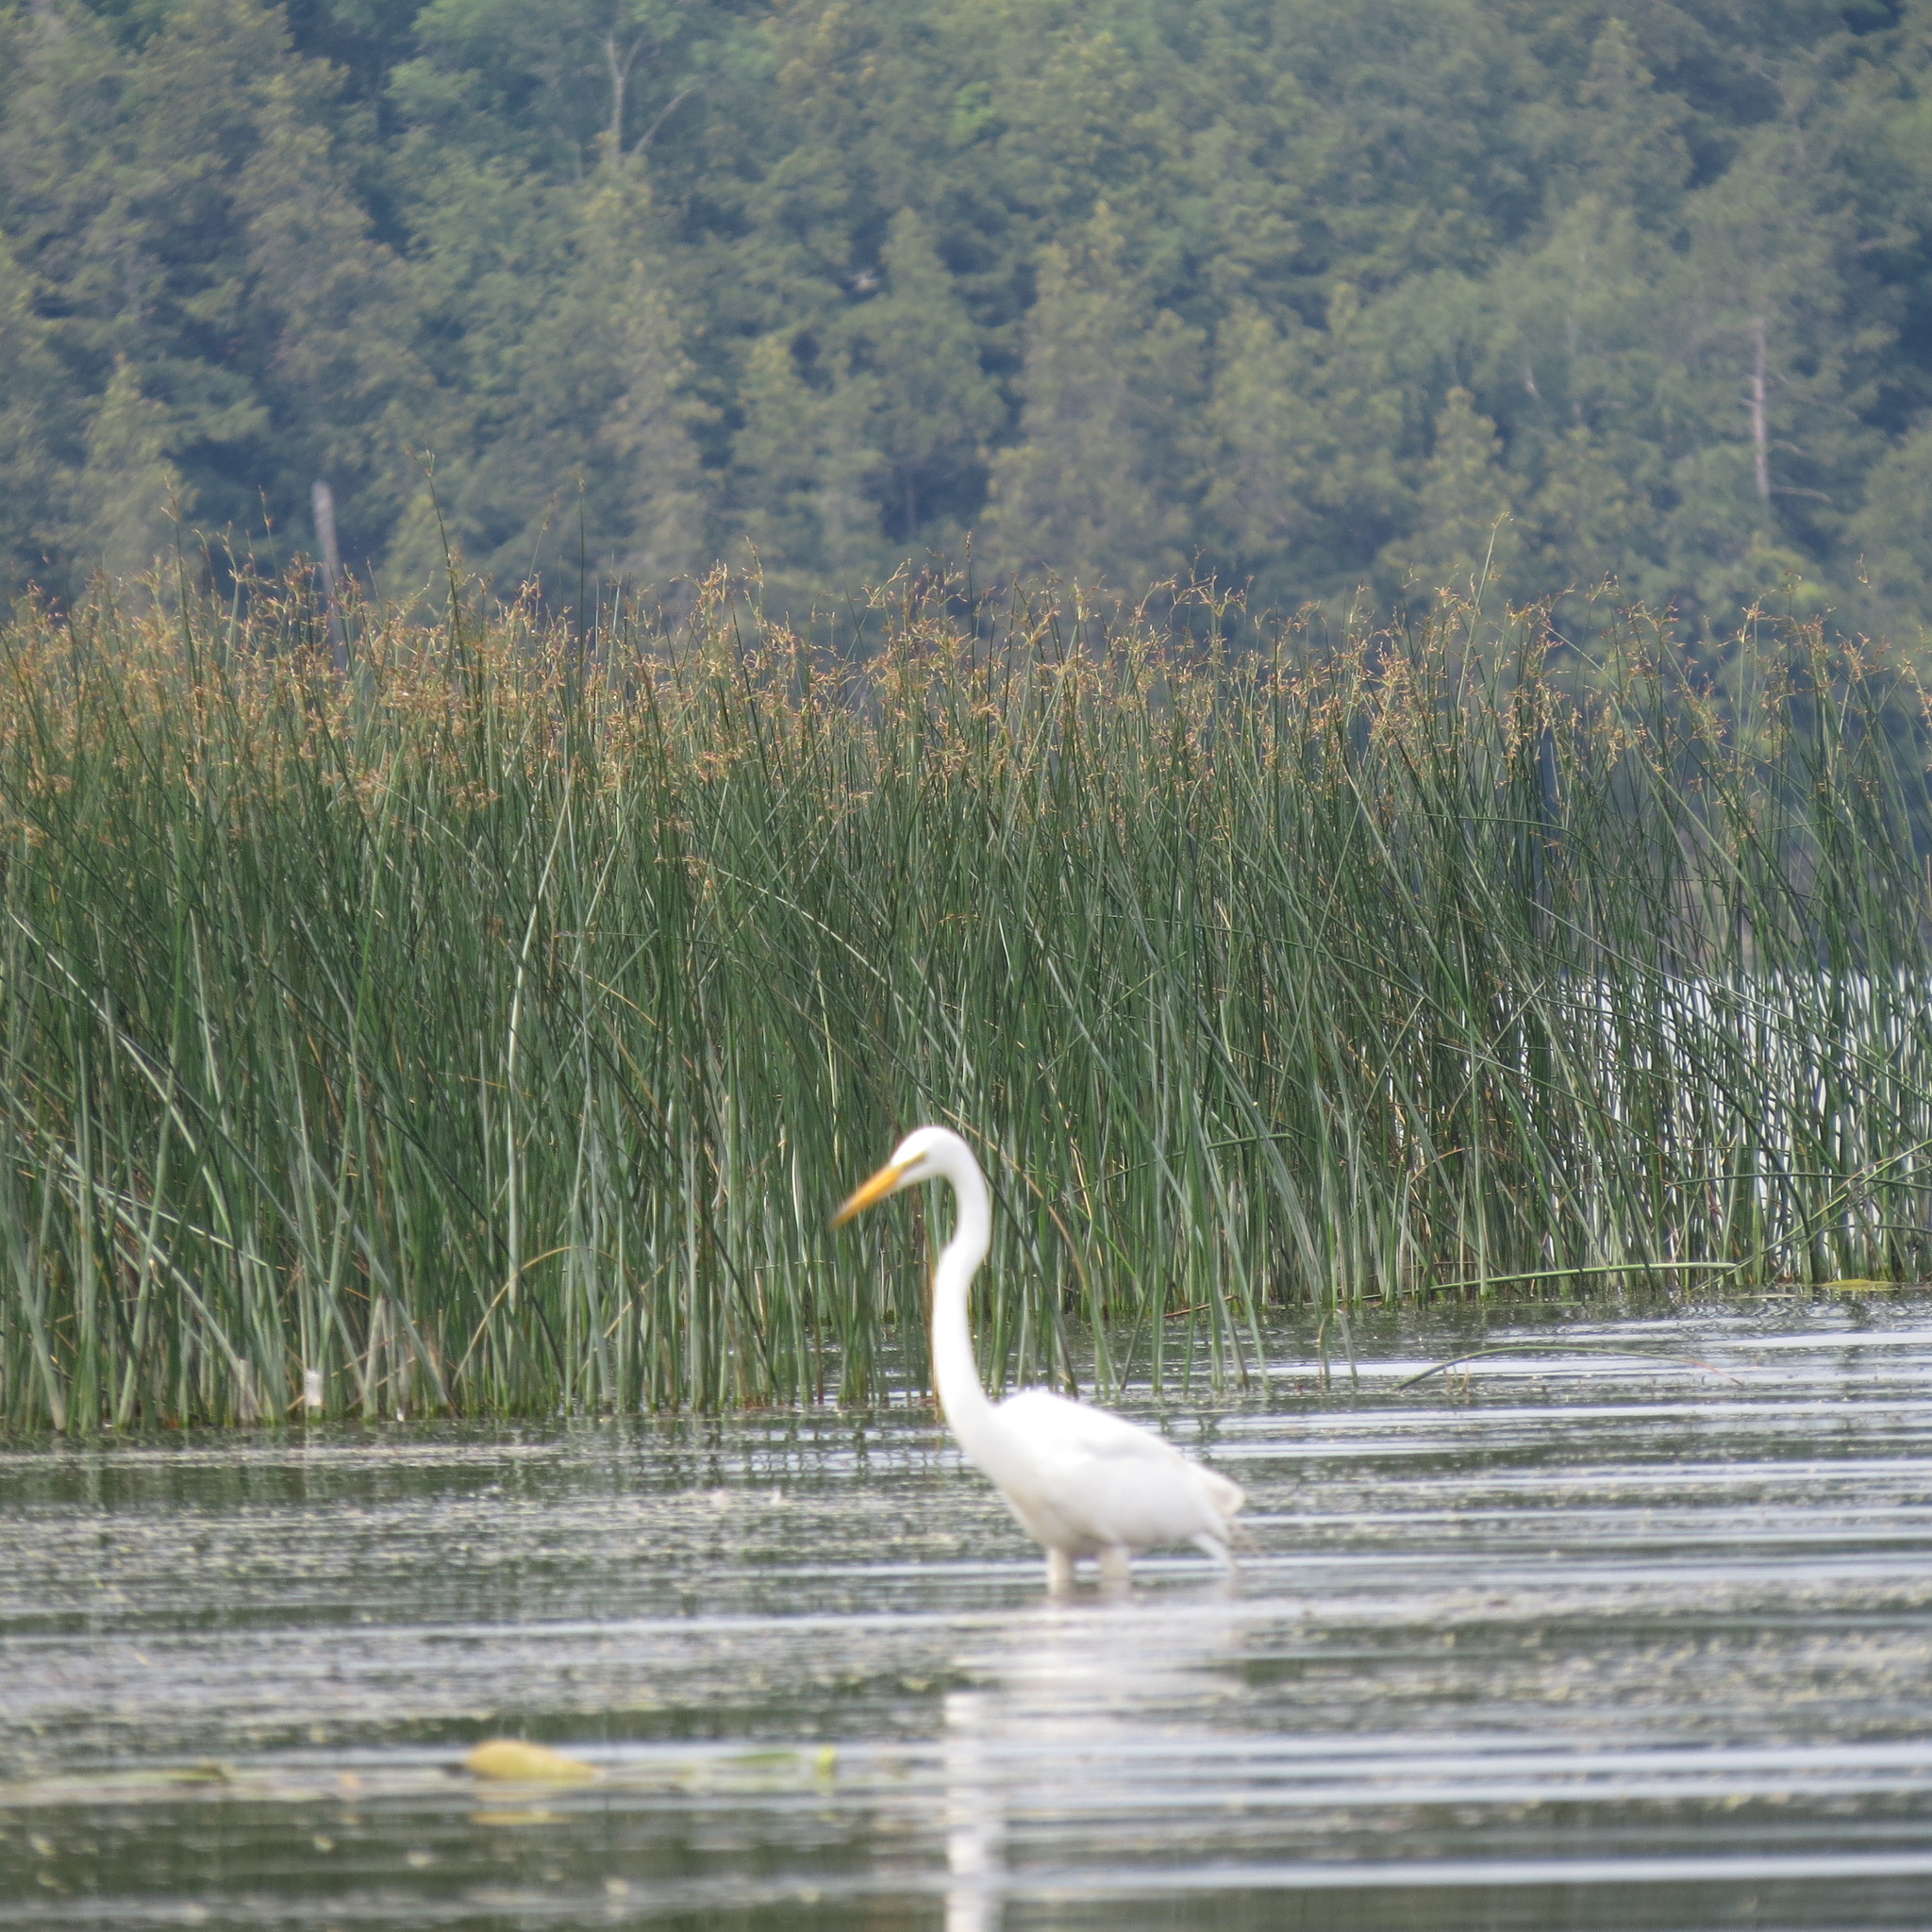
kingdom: Animalia
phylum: Chordata
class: Aves
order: Pelecaniformes
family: Ardeidae
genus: Ardea
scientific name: Ardea alba
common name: Great egret
